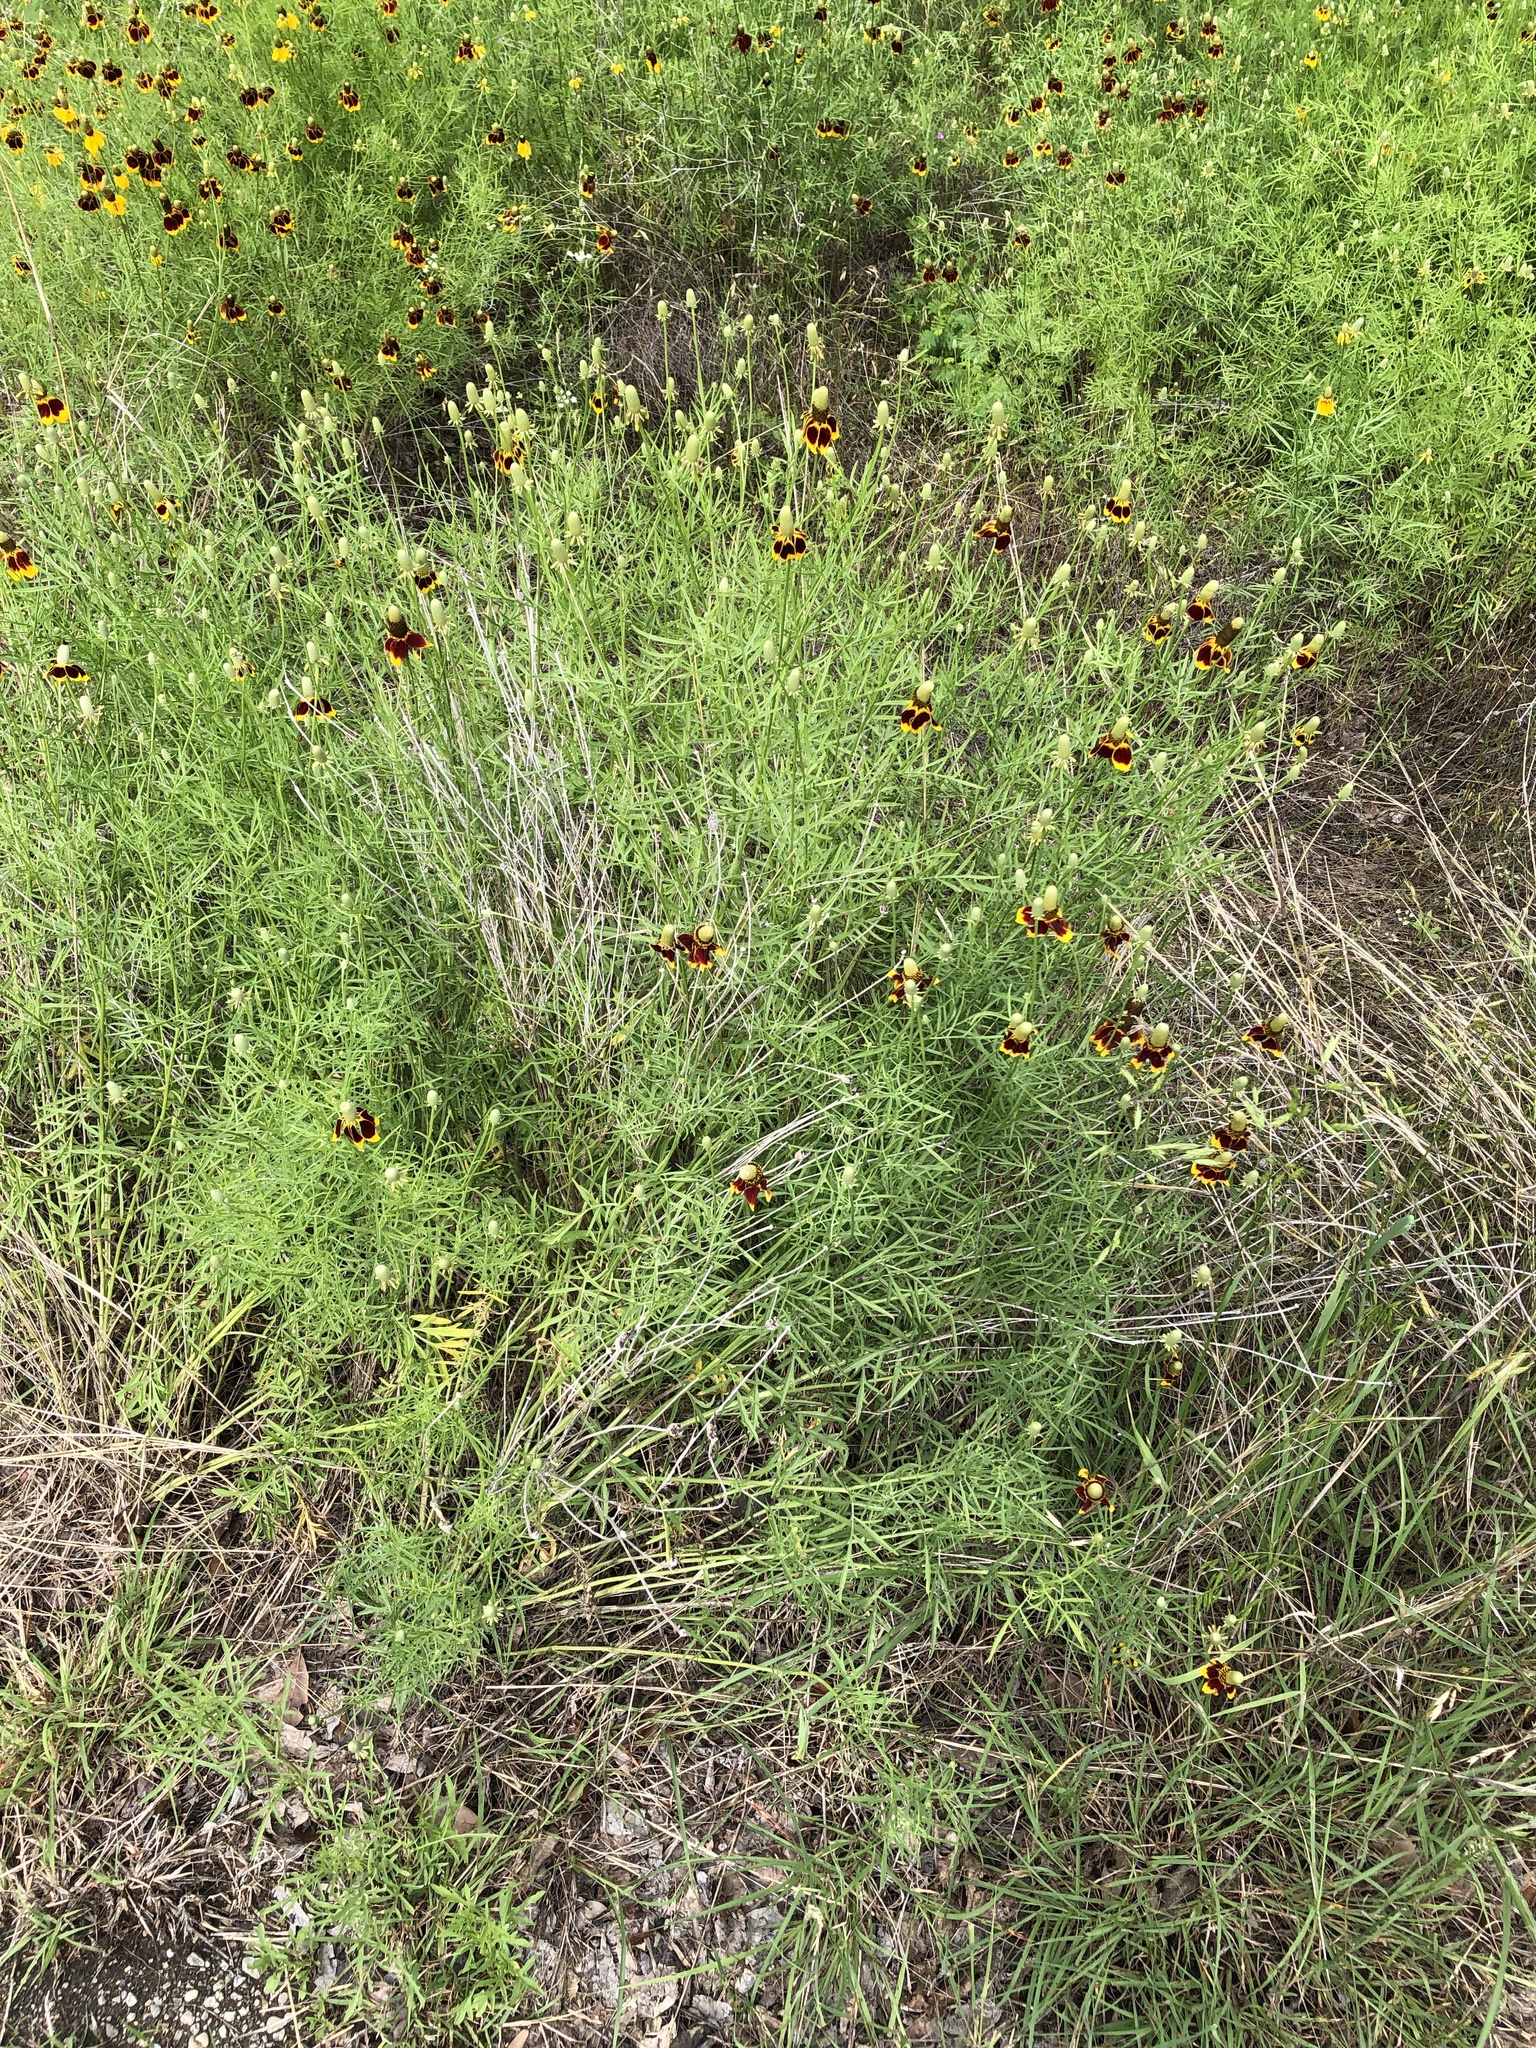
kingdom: Plantae
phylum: Tracheophyta
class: Magnoliopsida
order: Asterales
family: Asteraceae
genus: Ratibida
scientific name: Ratibida columnifera
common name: Prairie coneflower
